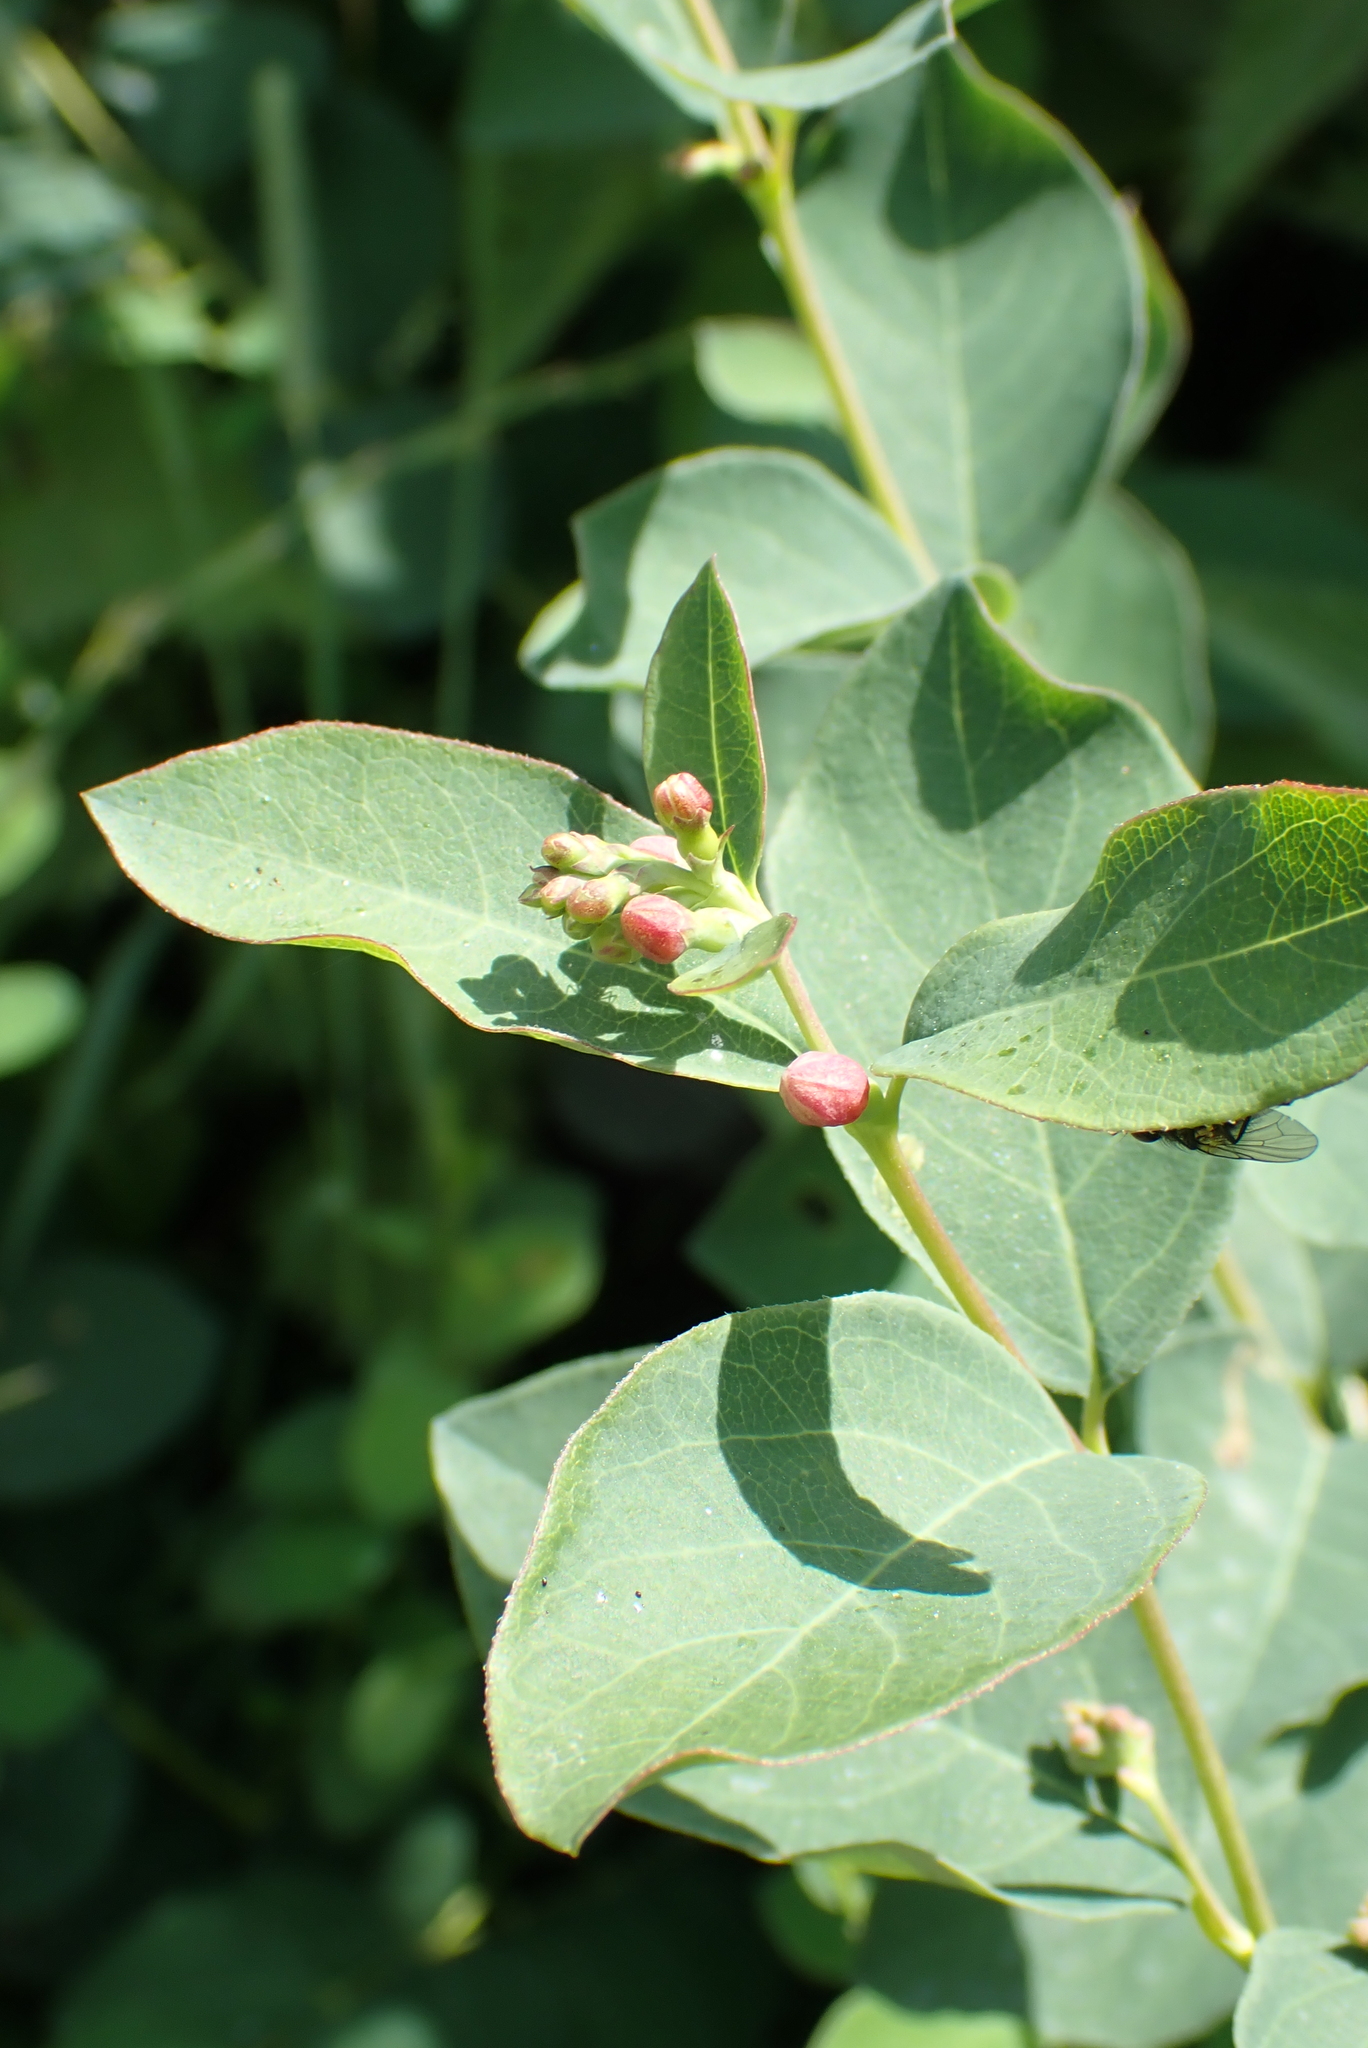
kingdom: Plantae
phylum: Tracheophyta
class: Magnoliopsida
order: Dipsacales
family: Caprifoliaceae
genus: Symphoricarpos
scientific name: Symphoricarpos albus
